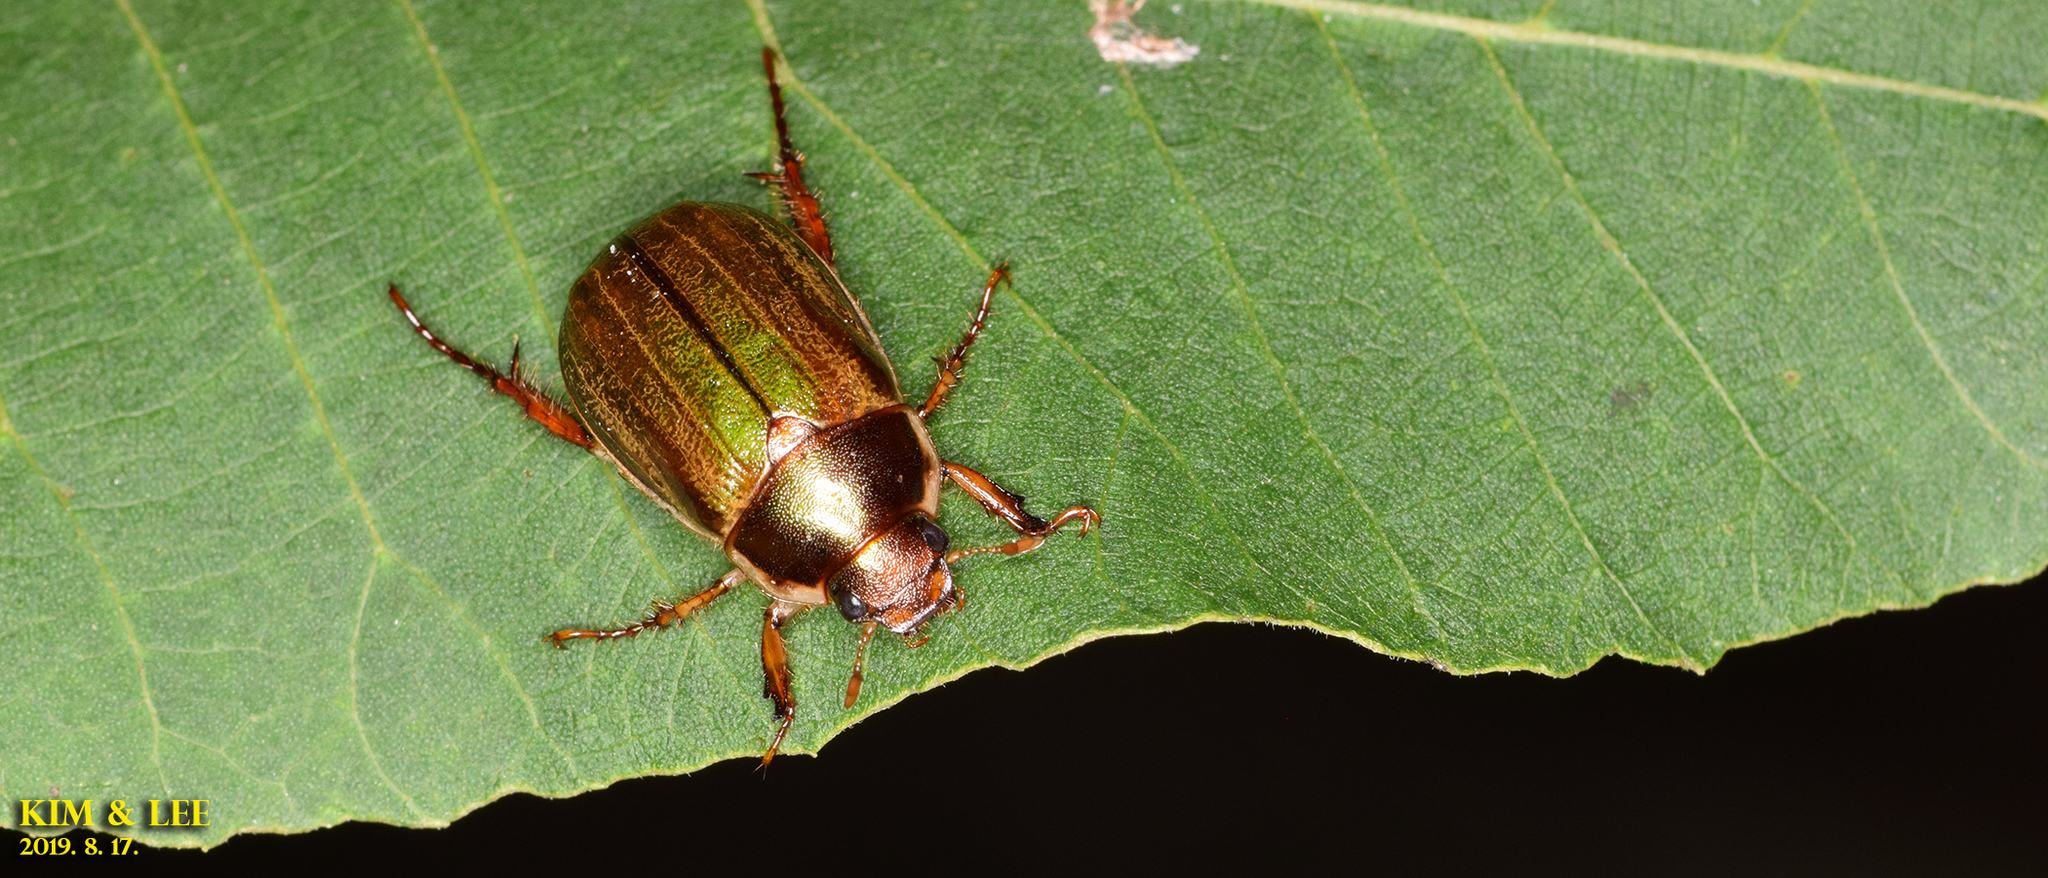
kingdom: Animalia
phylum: Arthropoda
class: Insecta
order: Coleoptera
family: Scarabaeidae
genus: Anomala
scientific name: Anomala corpulenta
